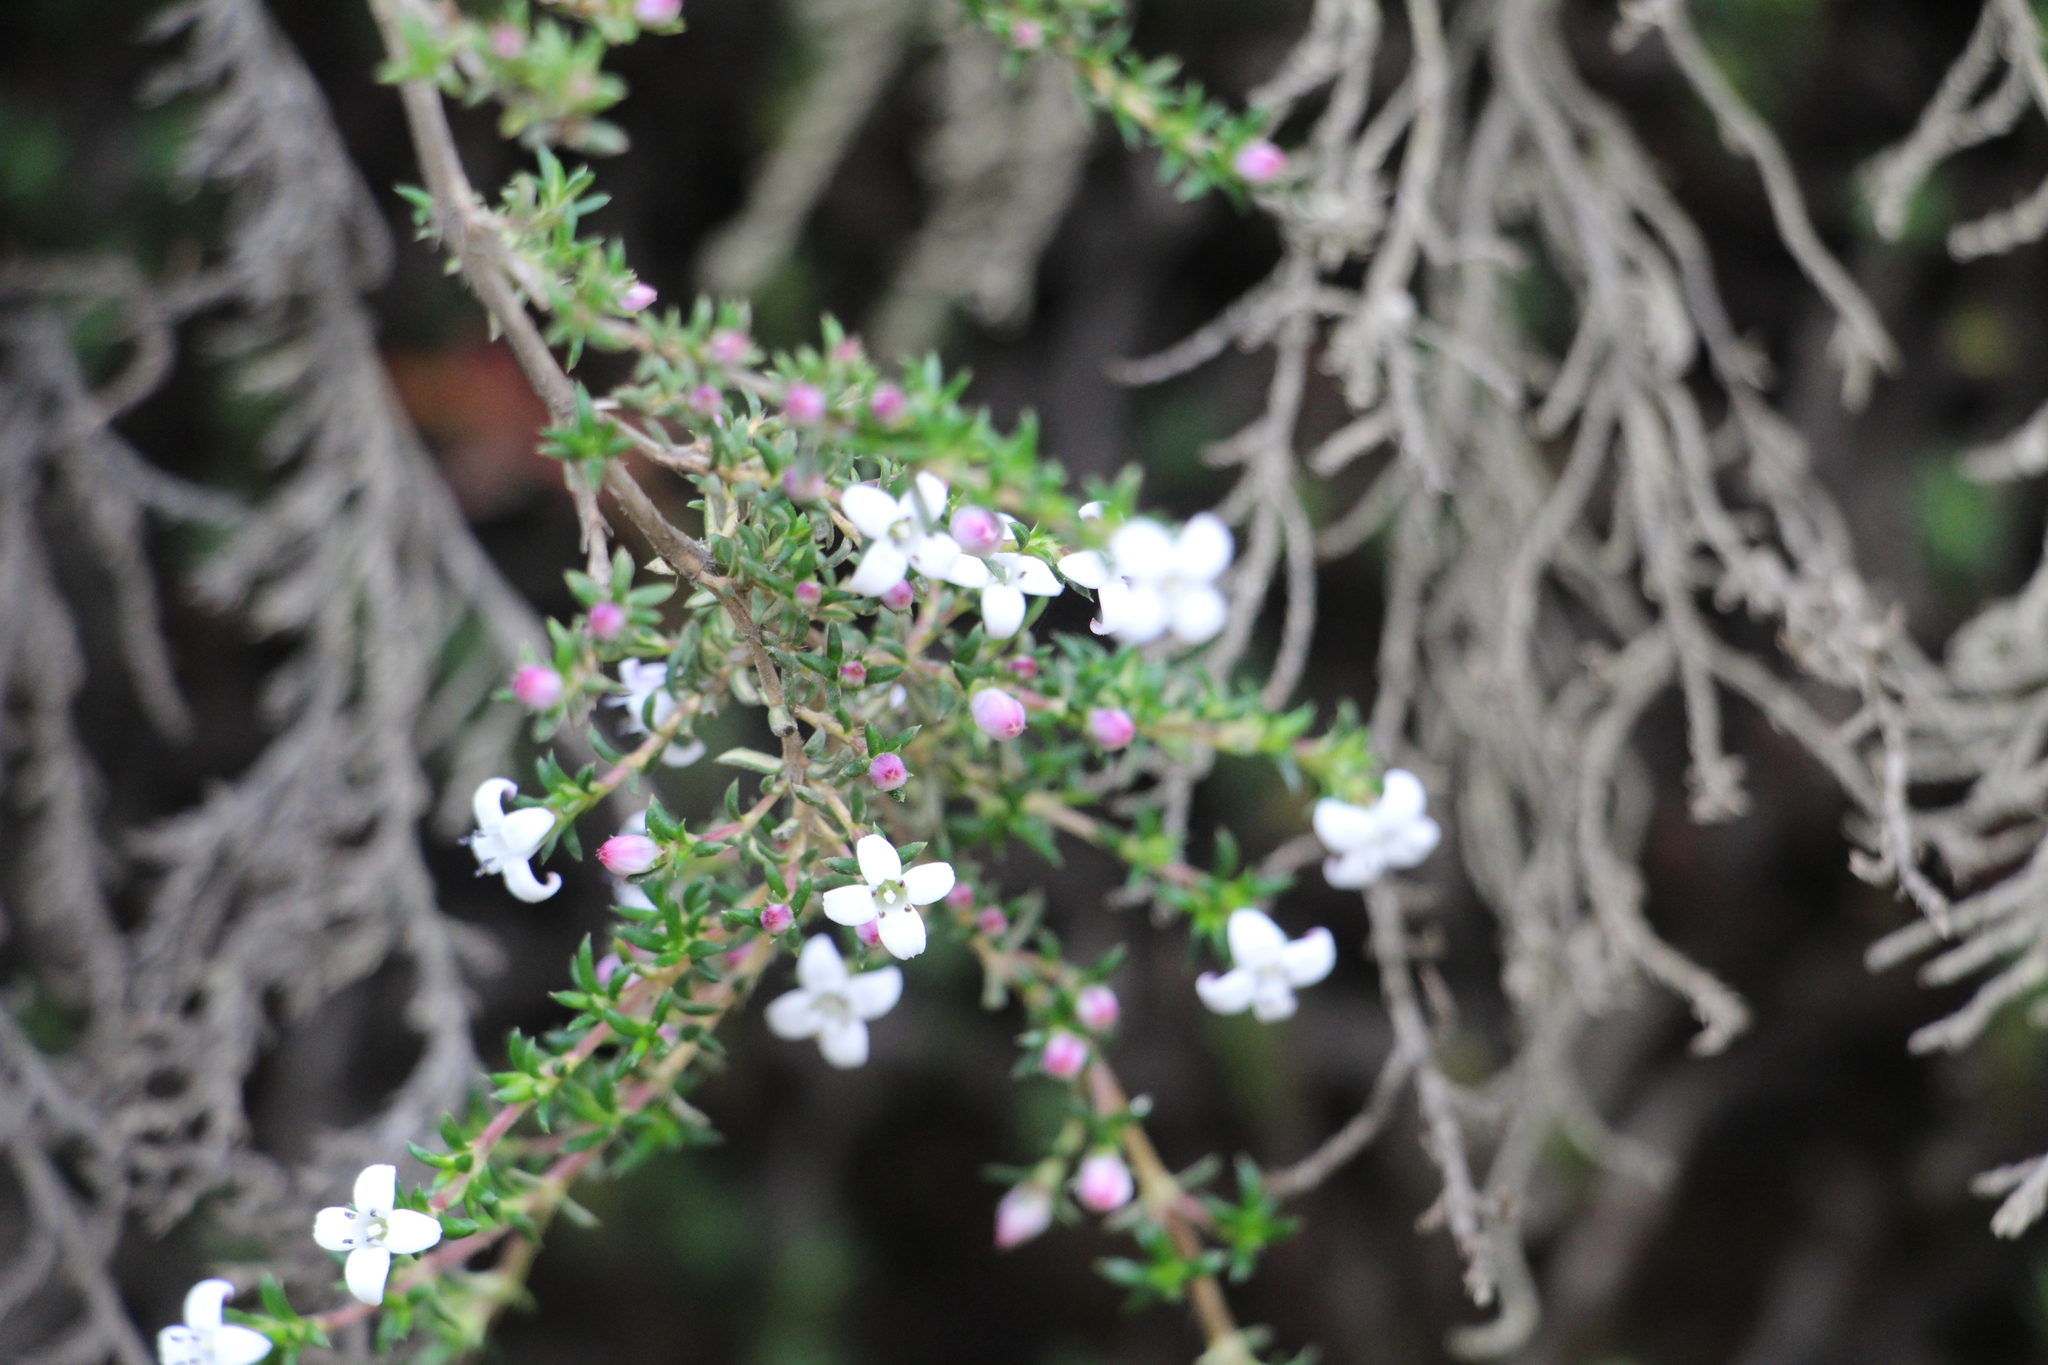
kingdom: Plantae
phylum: Tracheophyta
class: Magnoliopsida
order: Gentianales
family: Rubiaceae
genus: Arcytophyllum
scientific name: Arcytophyllum nitidum
